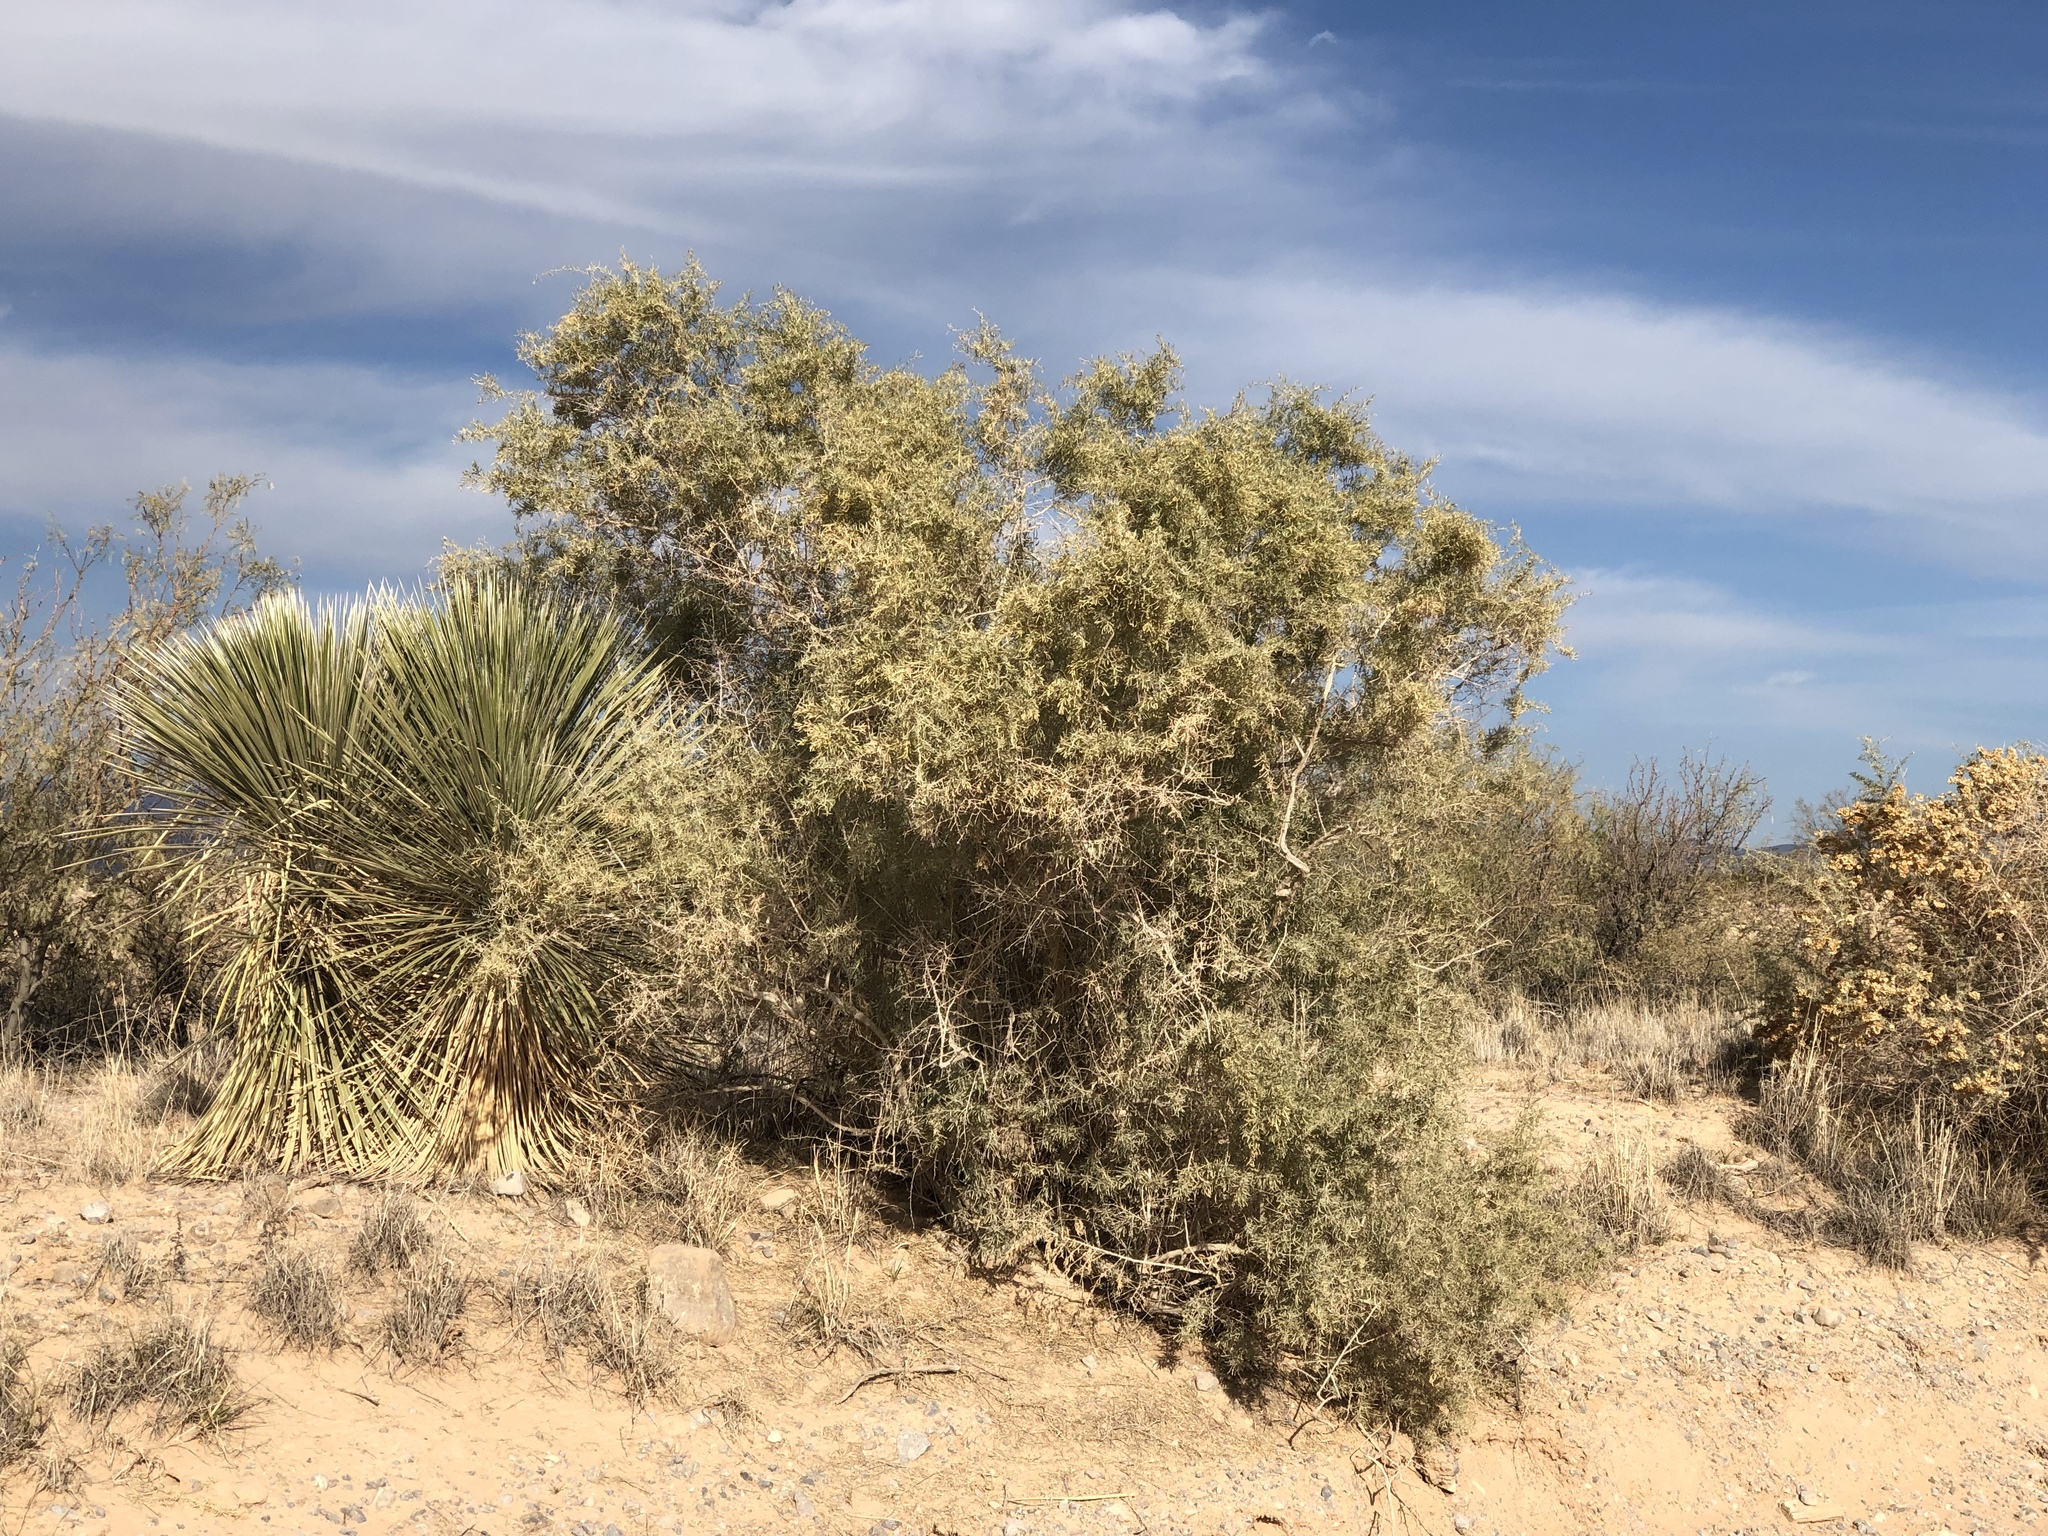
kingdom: Plantae
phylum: Tracheophyta
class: Magnoliopsida
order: Caryophyllales
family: Amaranthaceae
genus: Atriplex
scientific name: Atriplex canescens
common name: Four-wing saltbush
